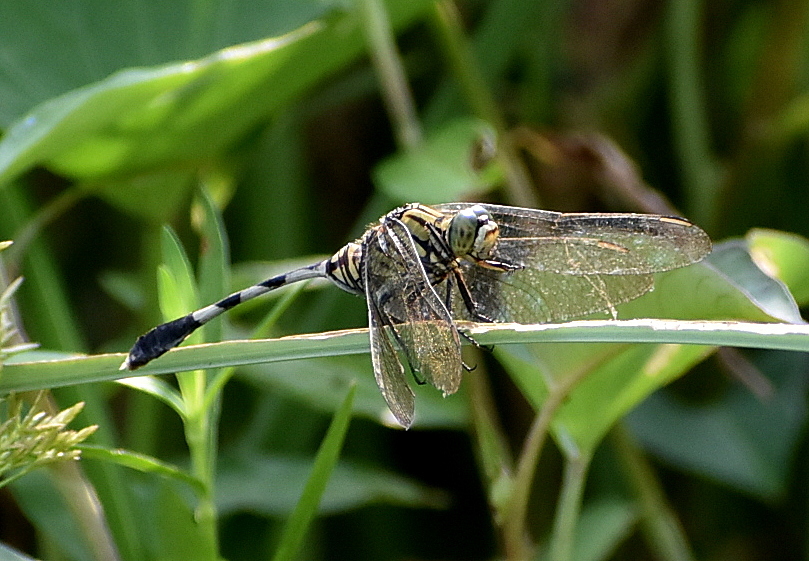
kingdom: Animalia
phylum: Arthropoda
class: Insecta
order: Odonata
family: Libellulidae
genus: Orthetrum
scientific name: Orthetrum sabina
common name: Slender skimmer
